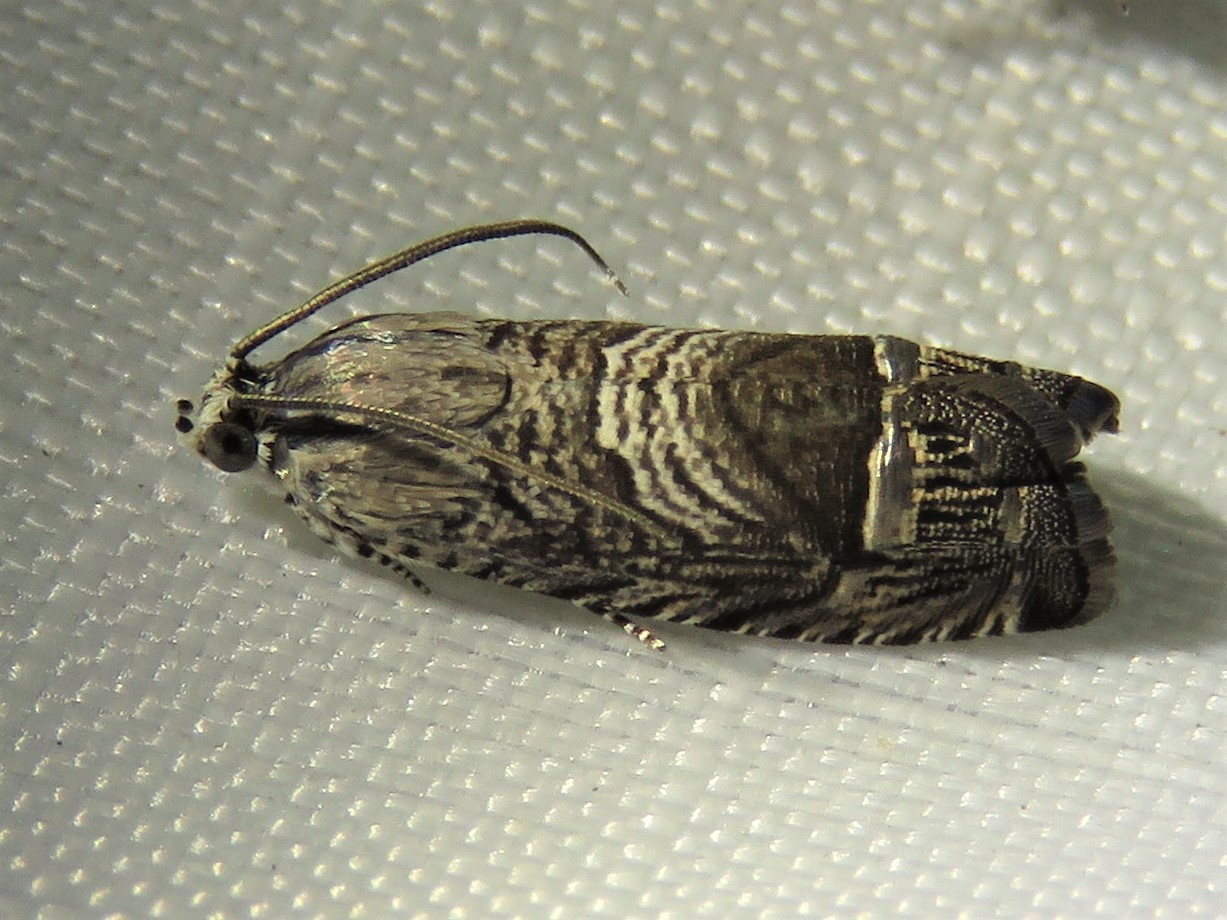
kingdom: Animalia
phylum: Arthropoda
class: Insecta
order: Lepidoptera
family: Tortricidae
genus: Ofatulena
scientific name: Ofatulena duodecemstriata
